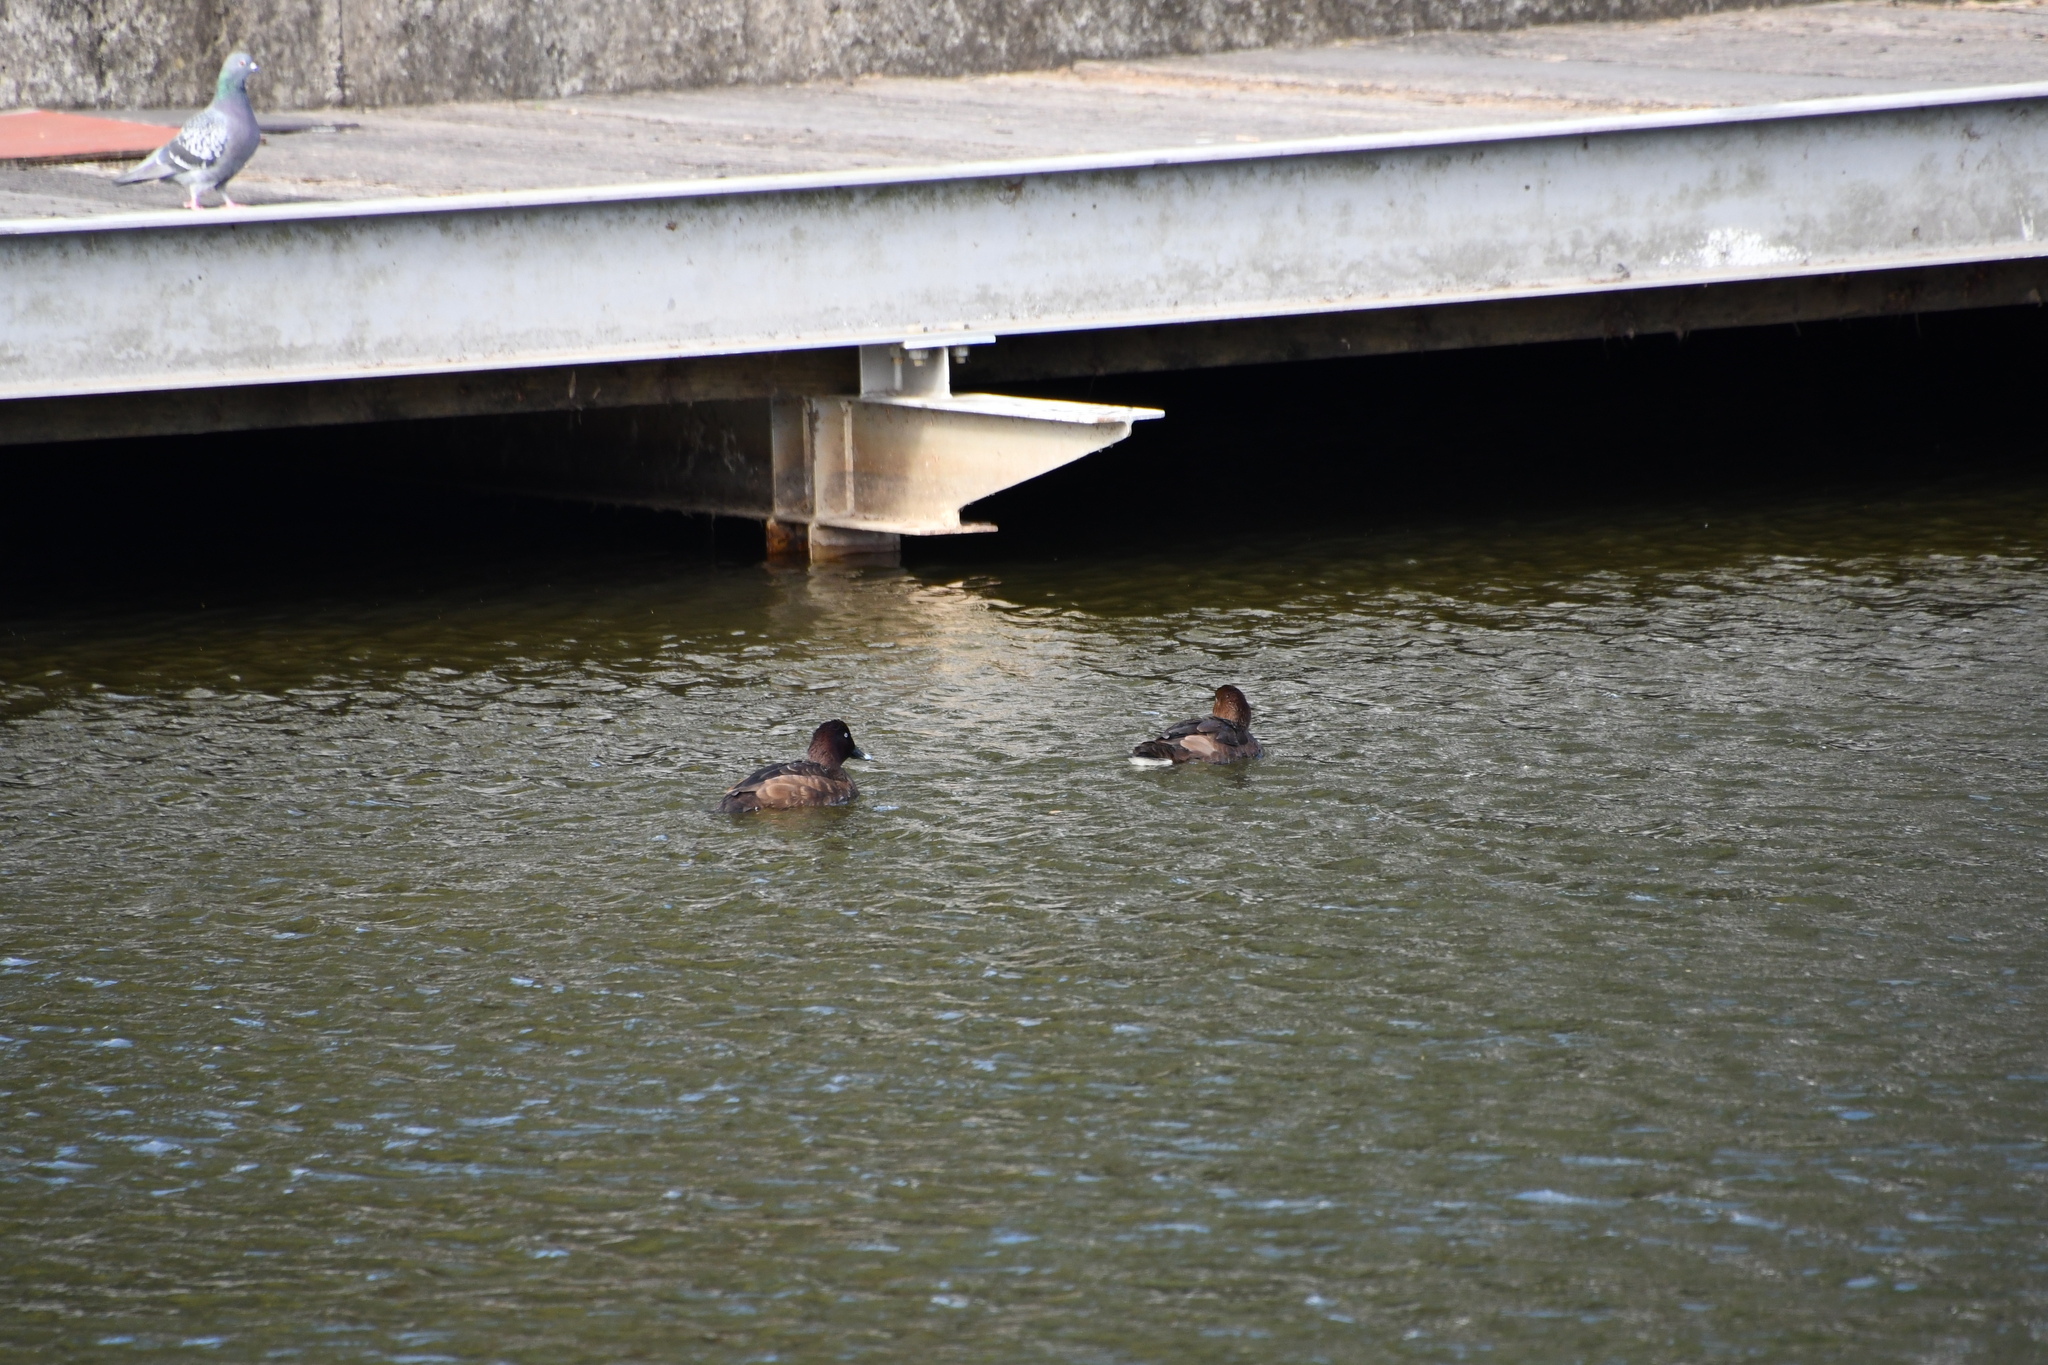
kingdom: Animalia
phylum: Chordata
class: Aves
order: Anseriformes
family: Anatidae
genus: Aythya
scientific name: Aythya australis
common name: Hardhead
